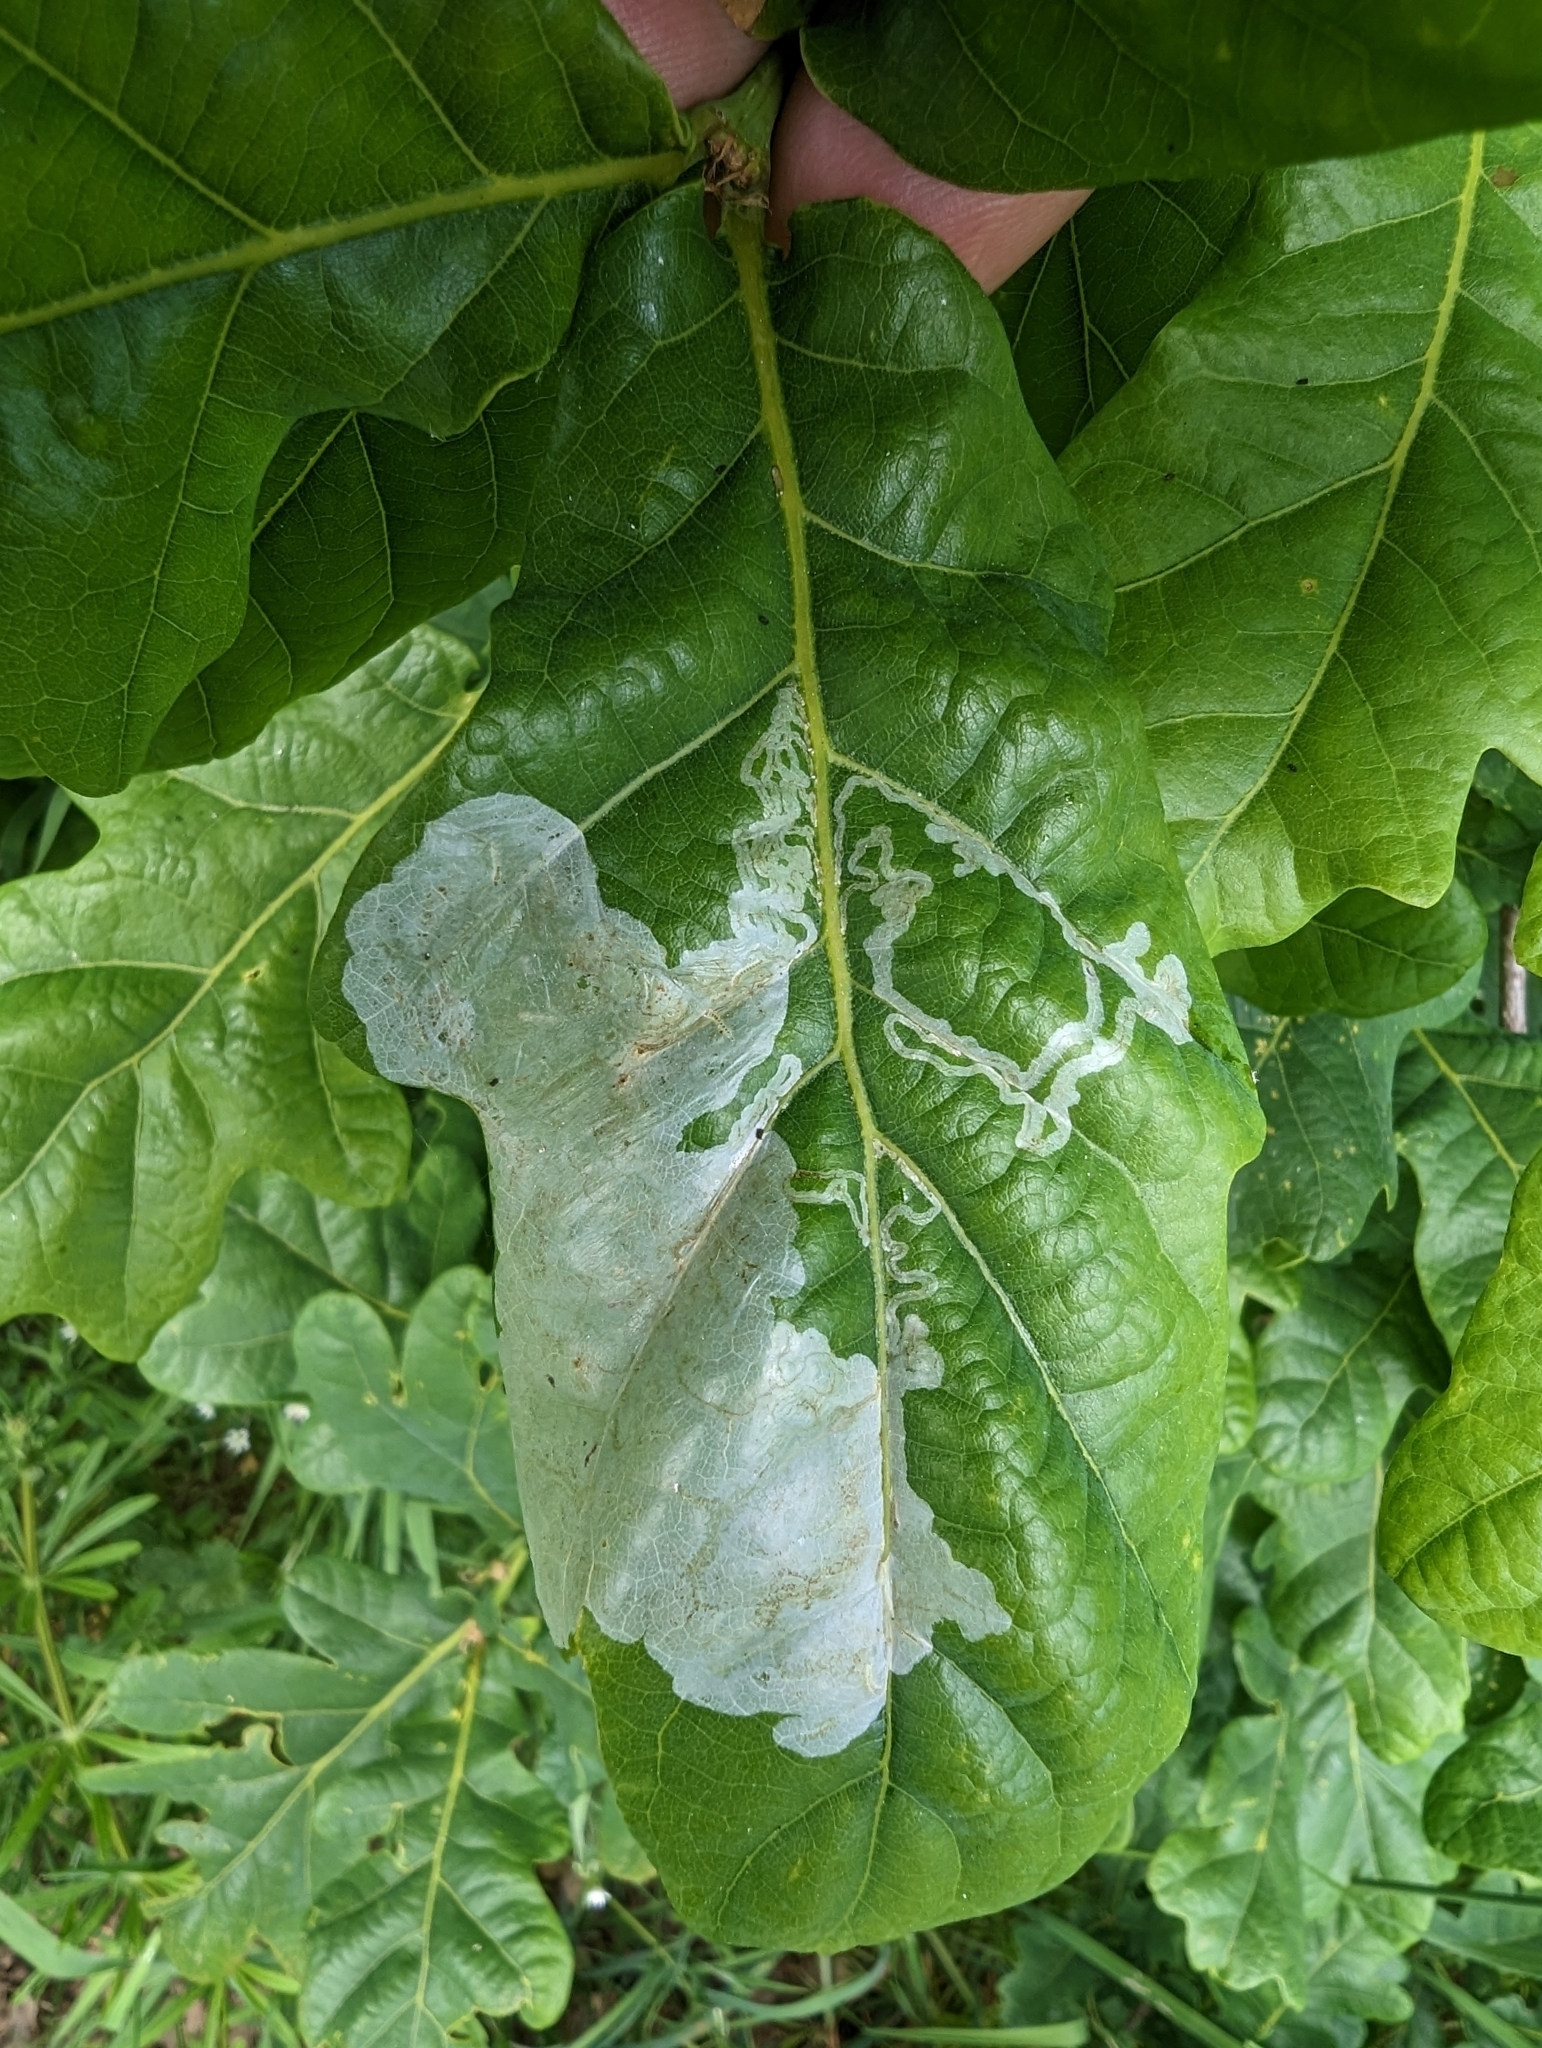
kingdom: Animalia
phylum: Arthropoda
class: Insecta
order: Lepidoptera
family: Gracillariidae
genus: Acrocercops
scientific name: Acrocercops brongniardella
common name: Brown oak slender
